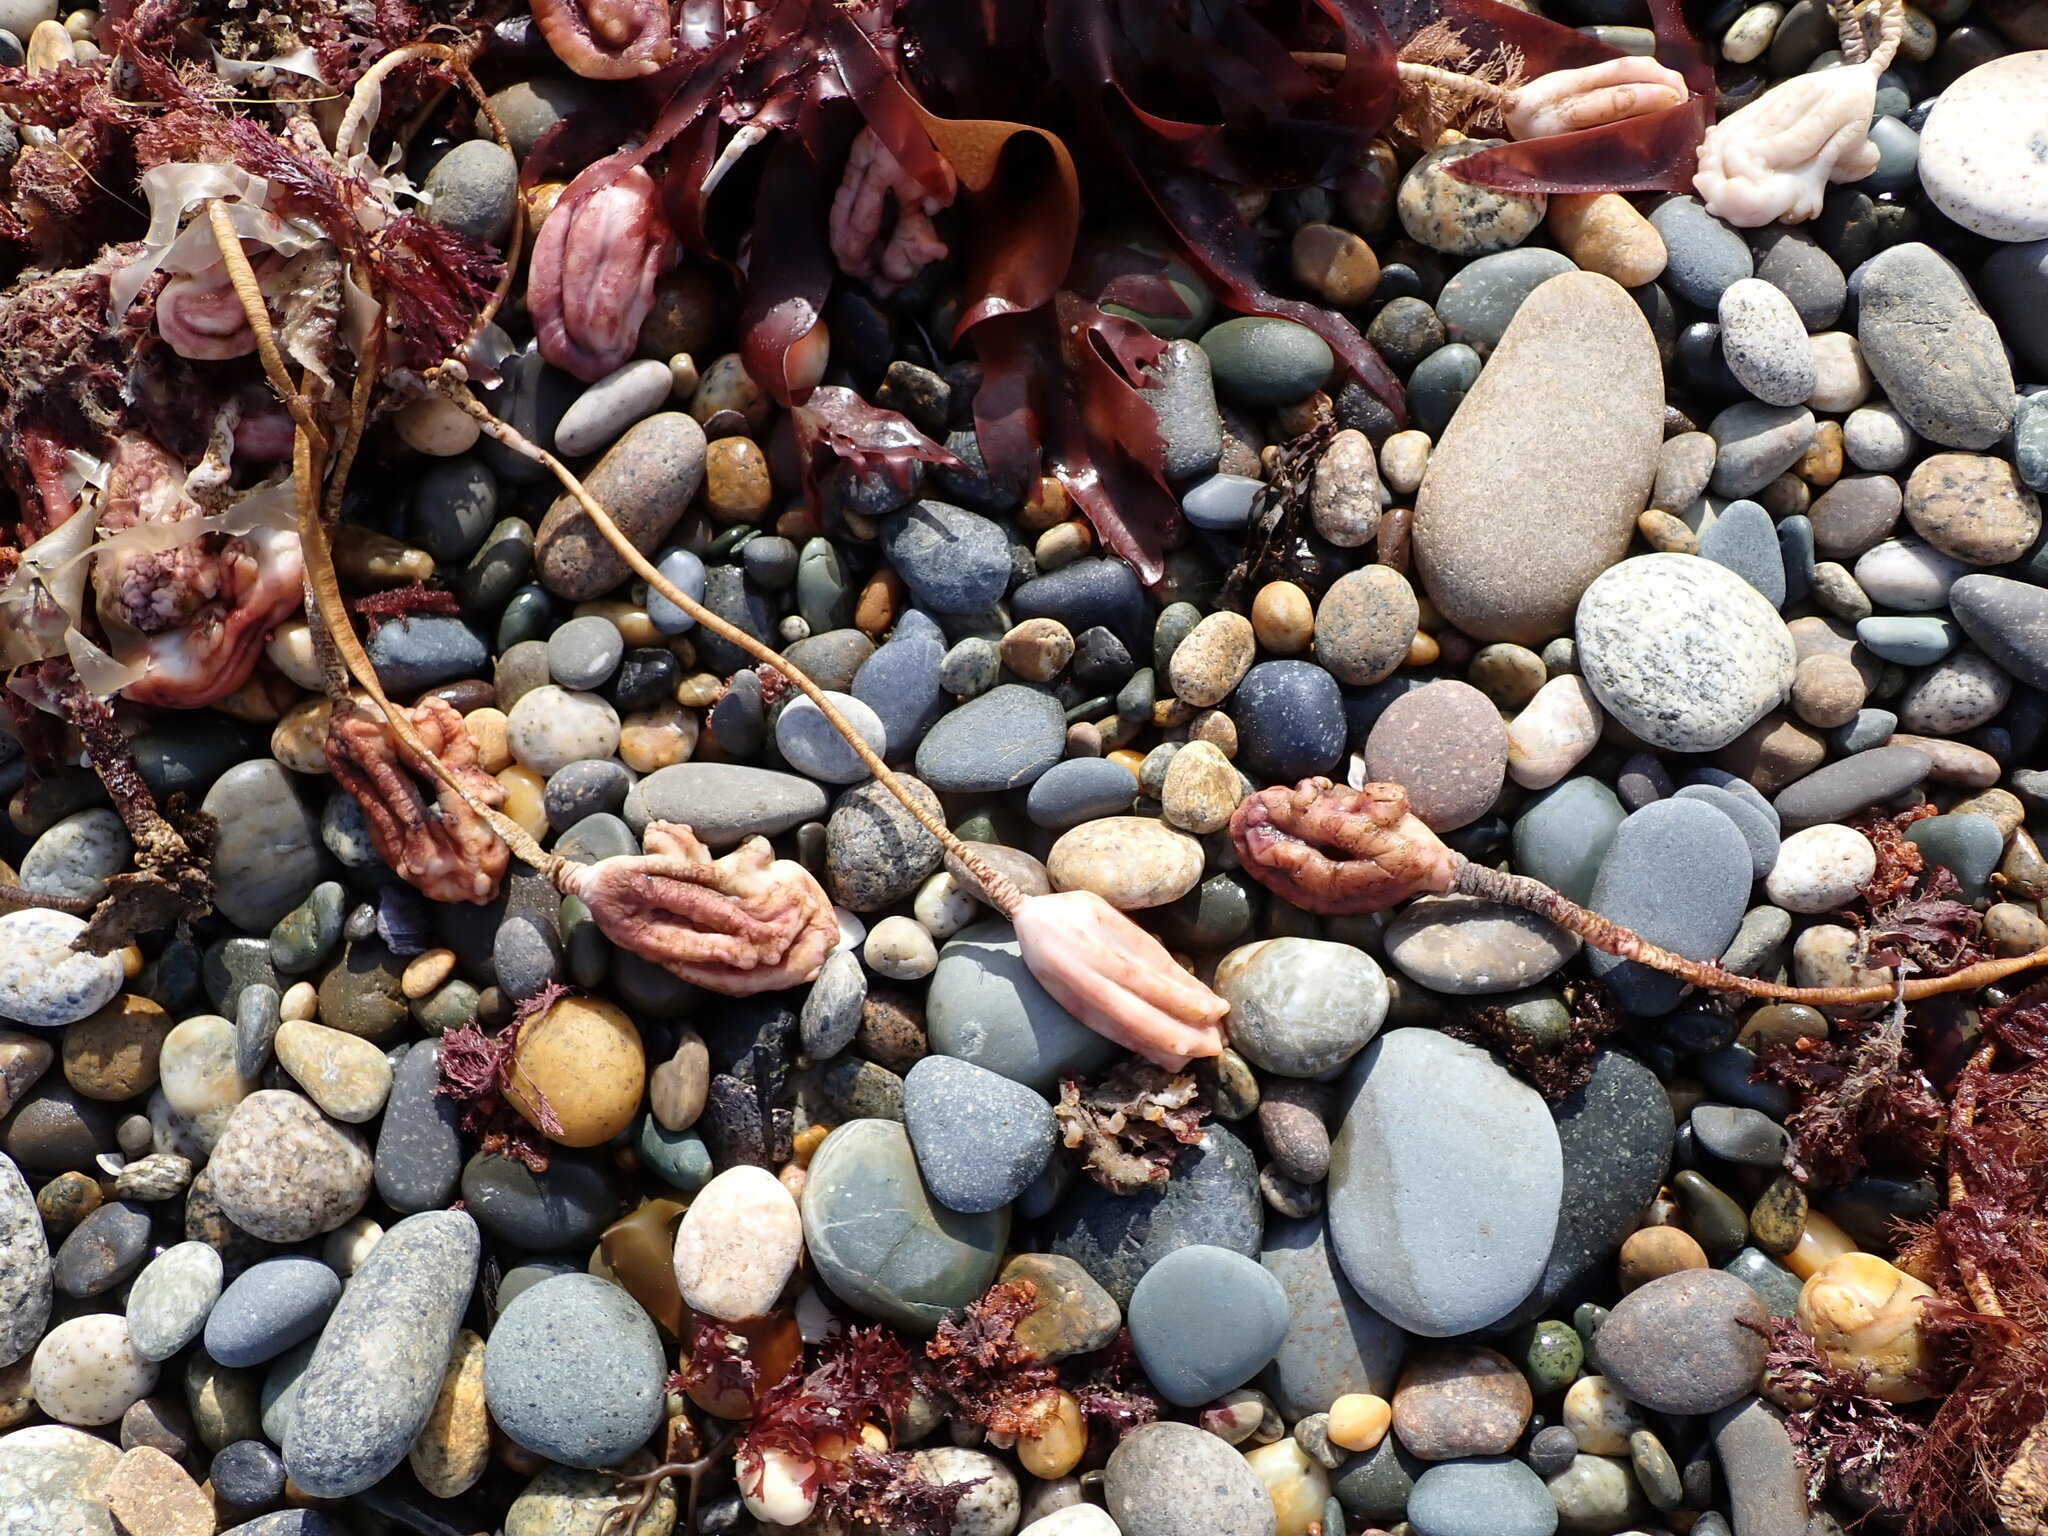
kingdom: Animalia
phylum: Chordata
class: Ascidiacea
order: Stolidobranchia
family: Pyuridae
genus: Pyura
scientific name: Pyura pachydermatina
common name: Sea tulip
